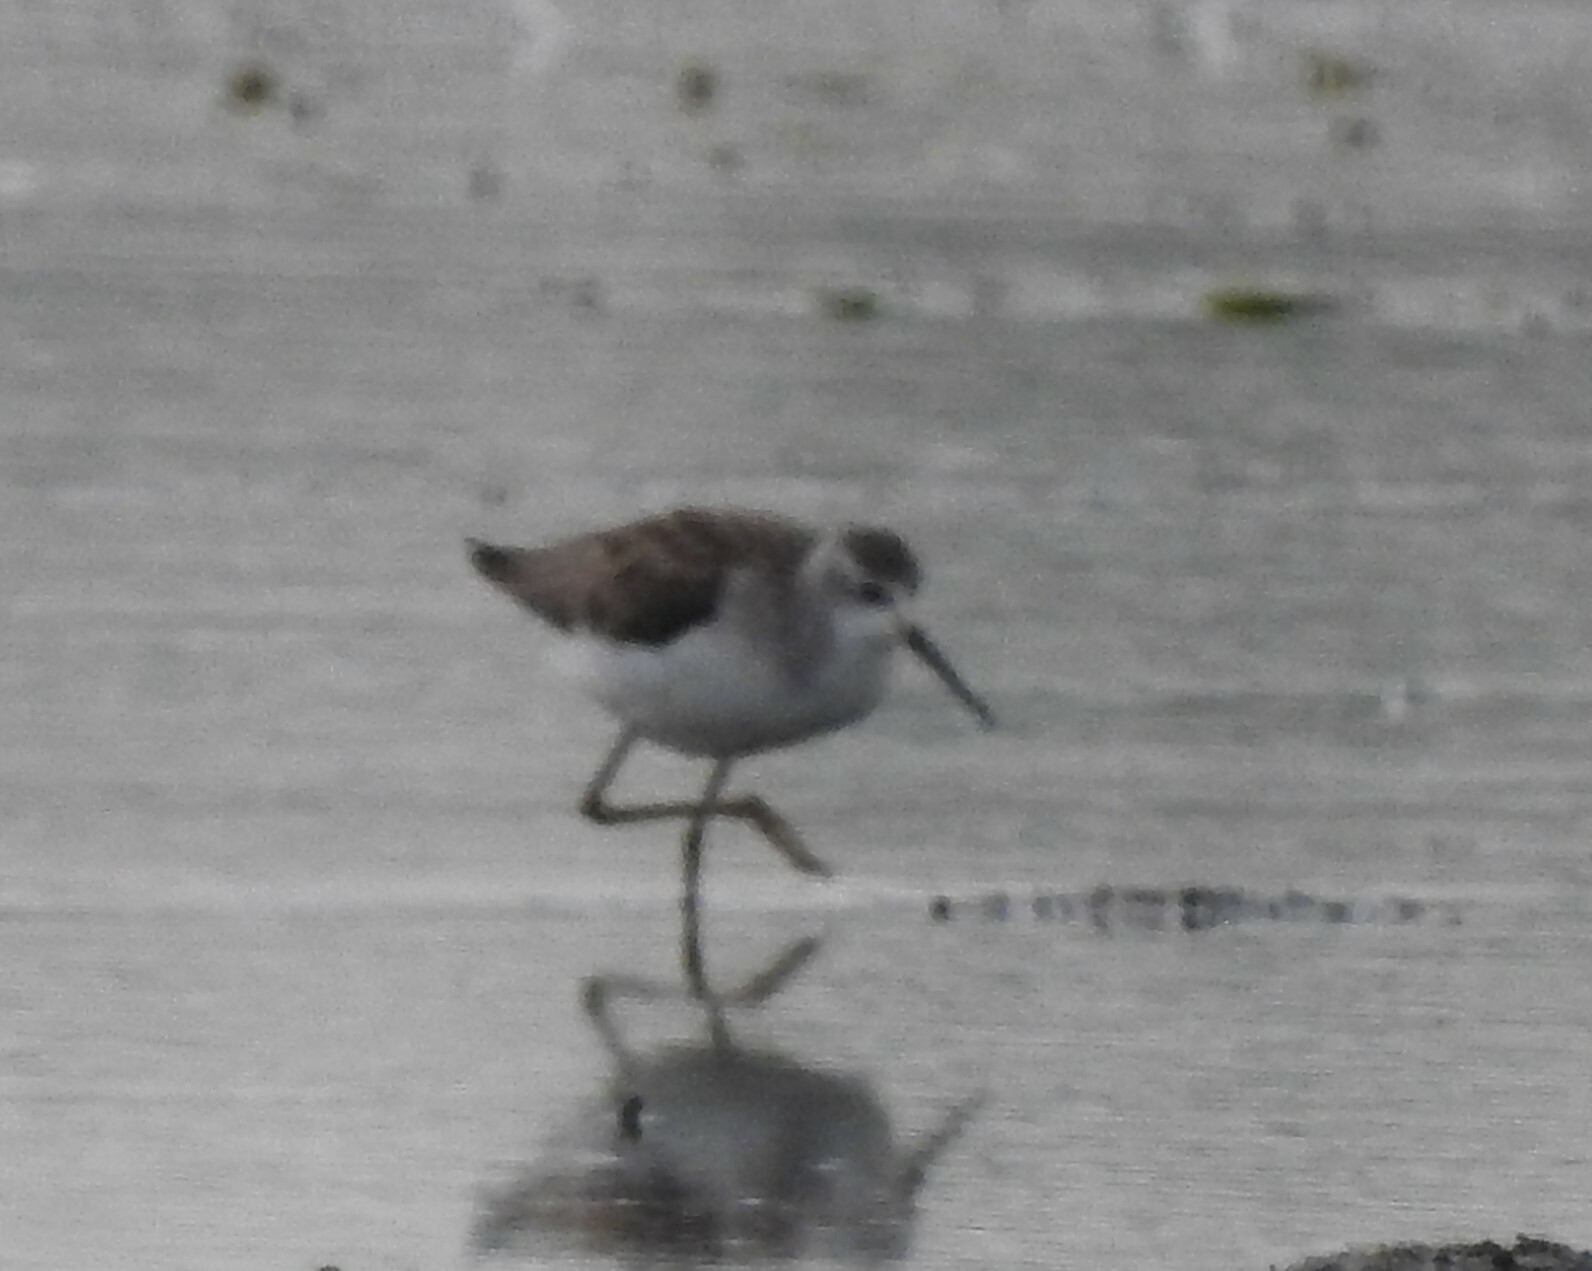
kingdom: Animalia
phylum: Chordata
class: Aves
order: Charadriiformes
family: Scolopacidae
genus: Tringa
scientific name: Tringa stagnatilis
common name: Marsh sandpiper
